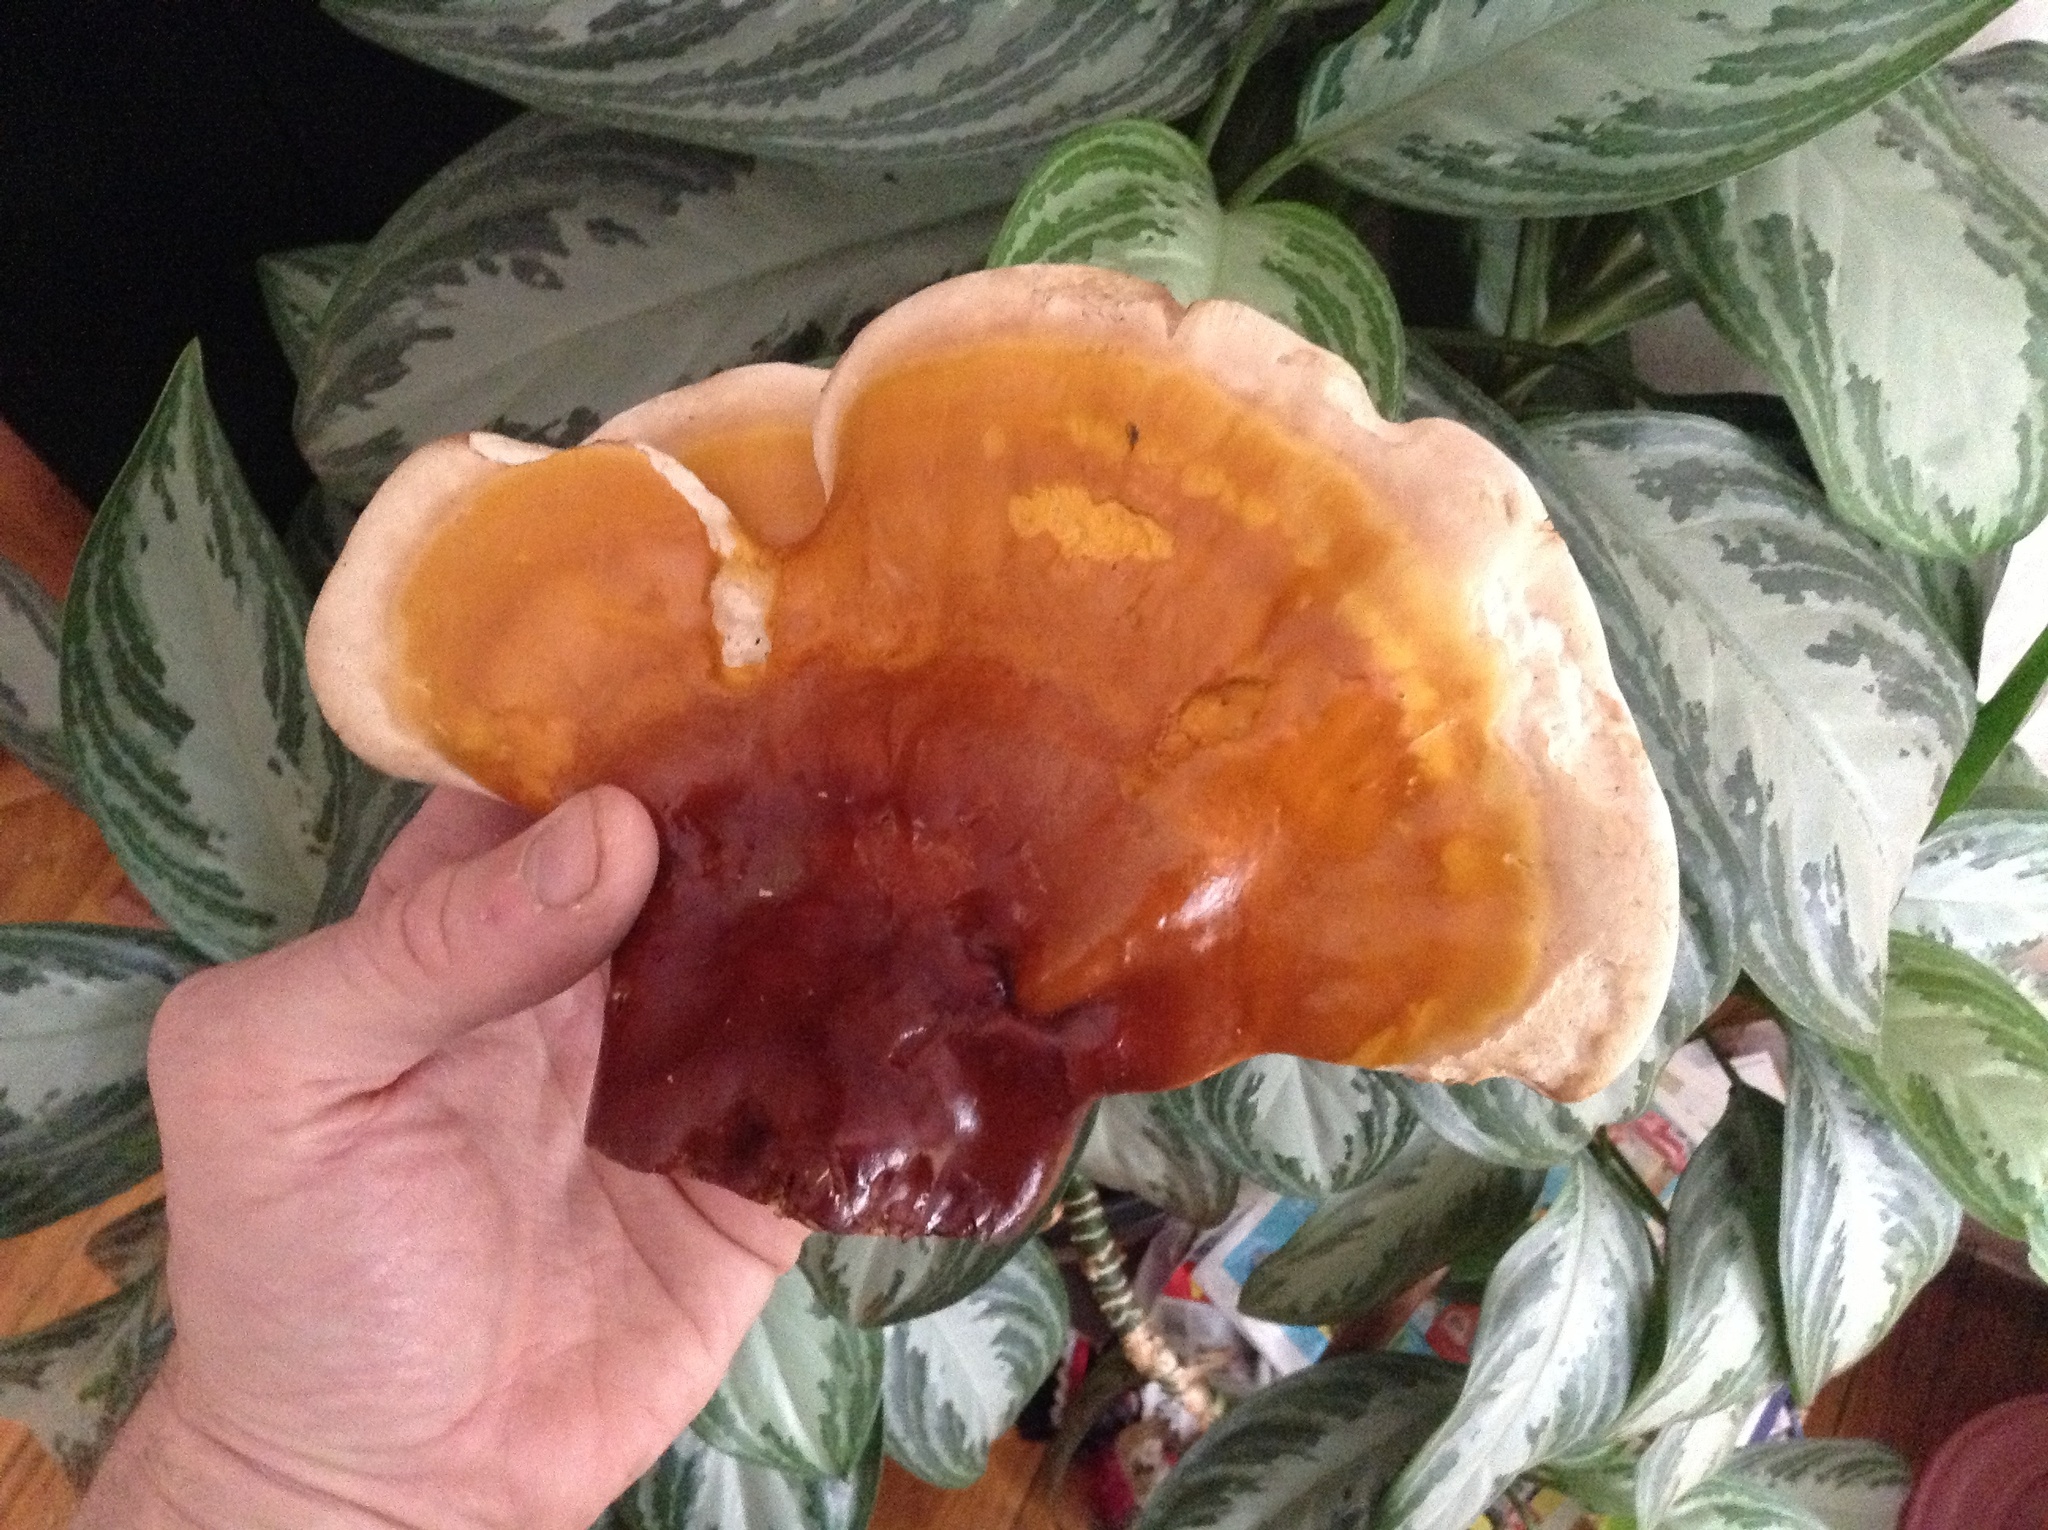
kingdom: Fungi
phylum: Basidiomycota
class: Agaricomycetes
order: Polyporales
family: Polyporaceae
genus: Ganoderma
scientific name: Ganoderma tsugae
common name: Hemlock varnish shelf
